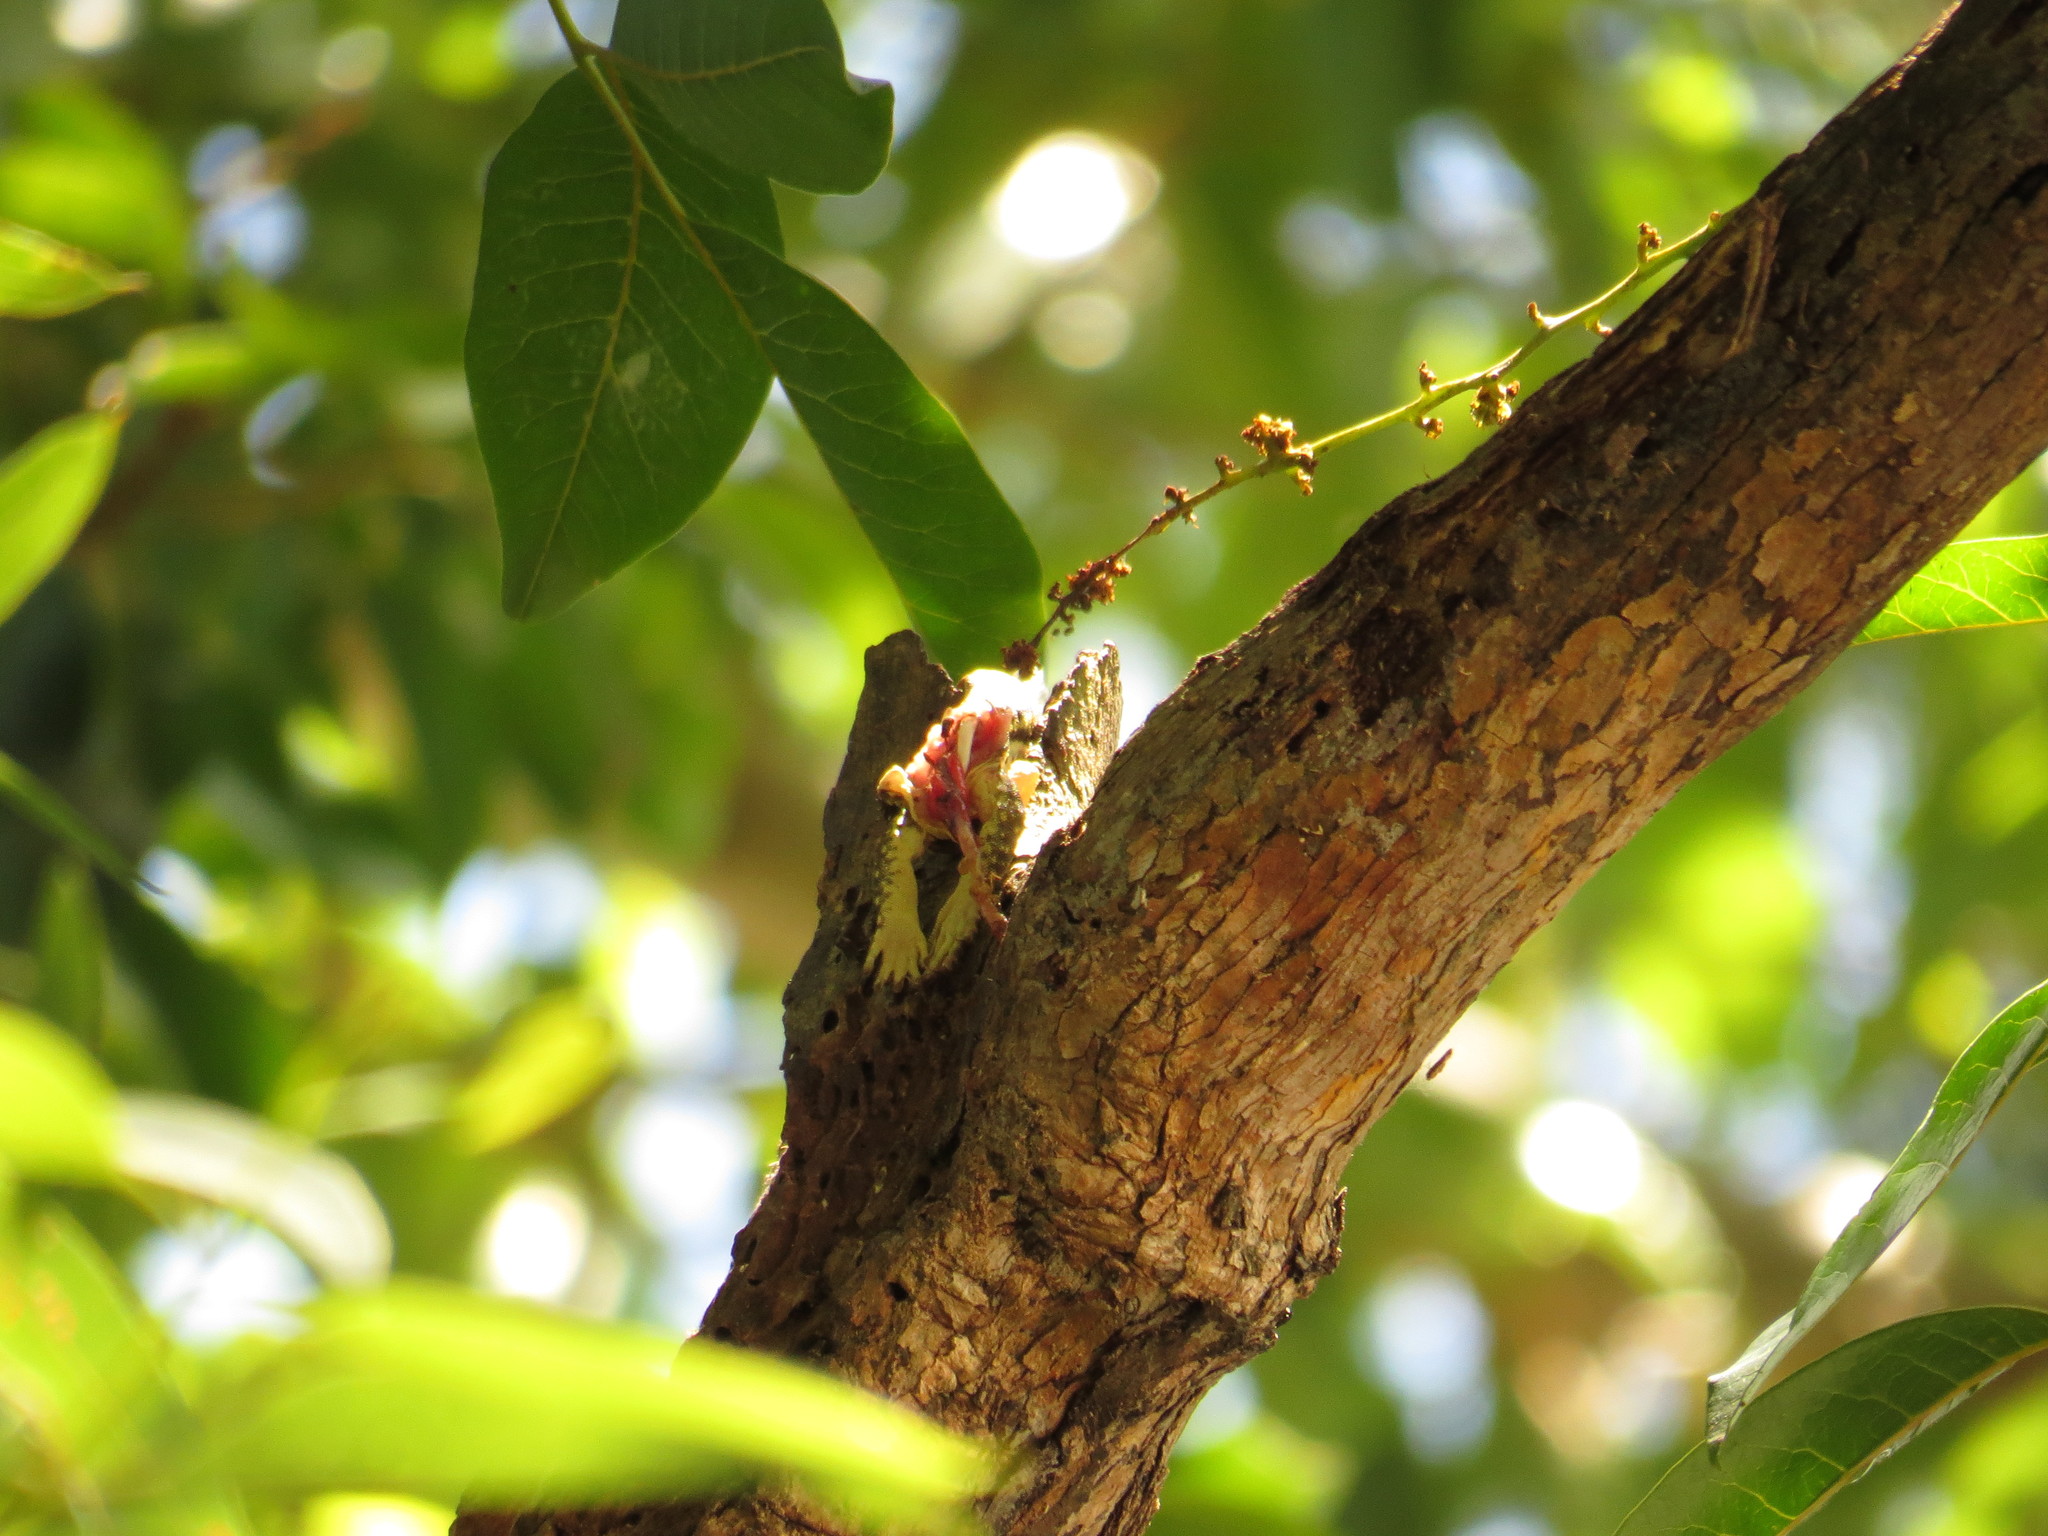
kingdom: Animalia
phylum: Chordata
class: Aves
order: Passeriformes
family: Artamidae
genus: Melloria
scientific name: Melloria quoyi
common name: Black butcherbird
